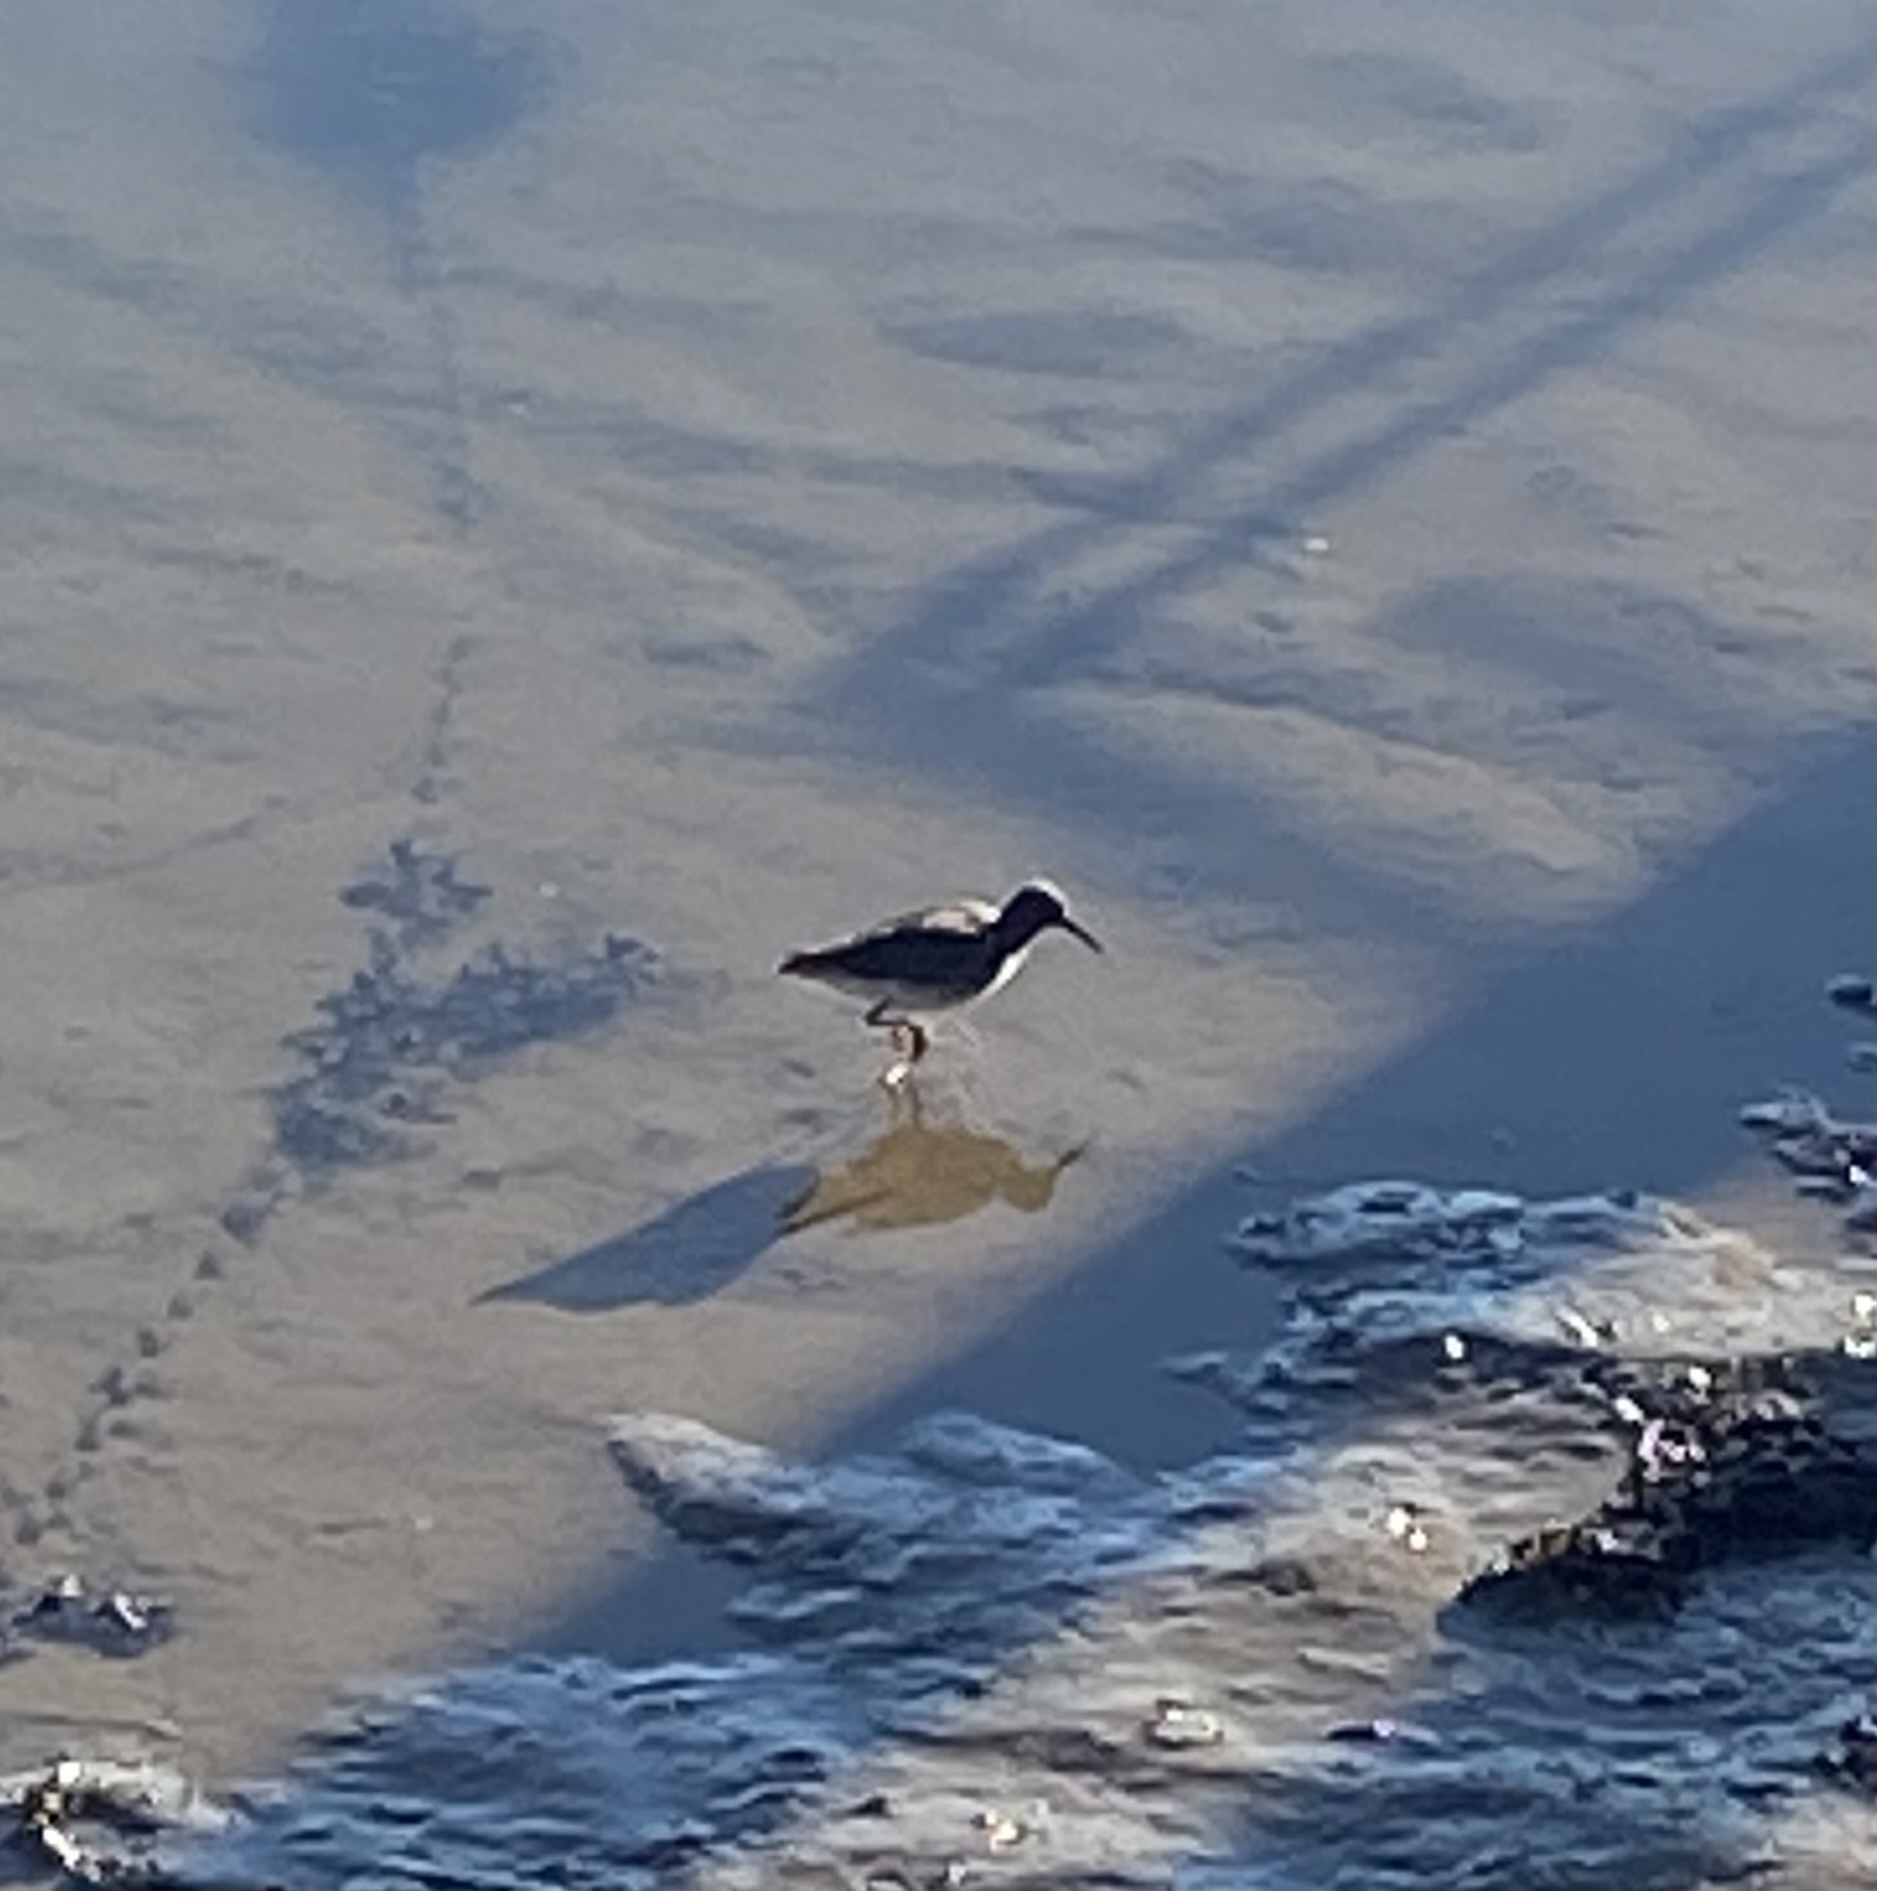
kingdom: Animalia
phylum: Chordata
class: Aves
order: Charadriiformes
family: Scolopacidae
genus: Tringa
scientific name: Tringa totanus
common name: Common redshank
